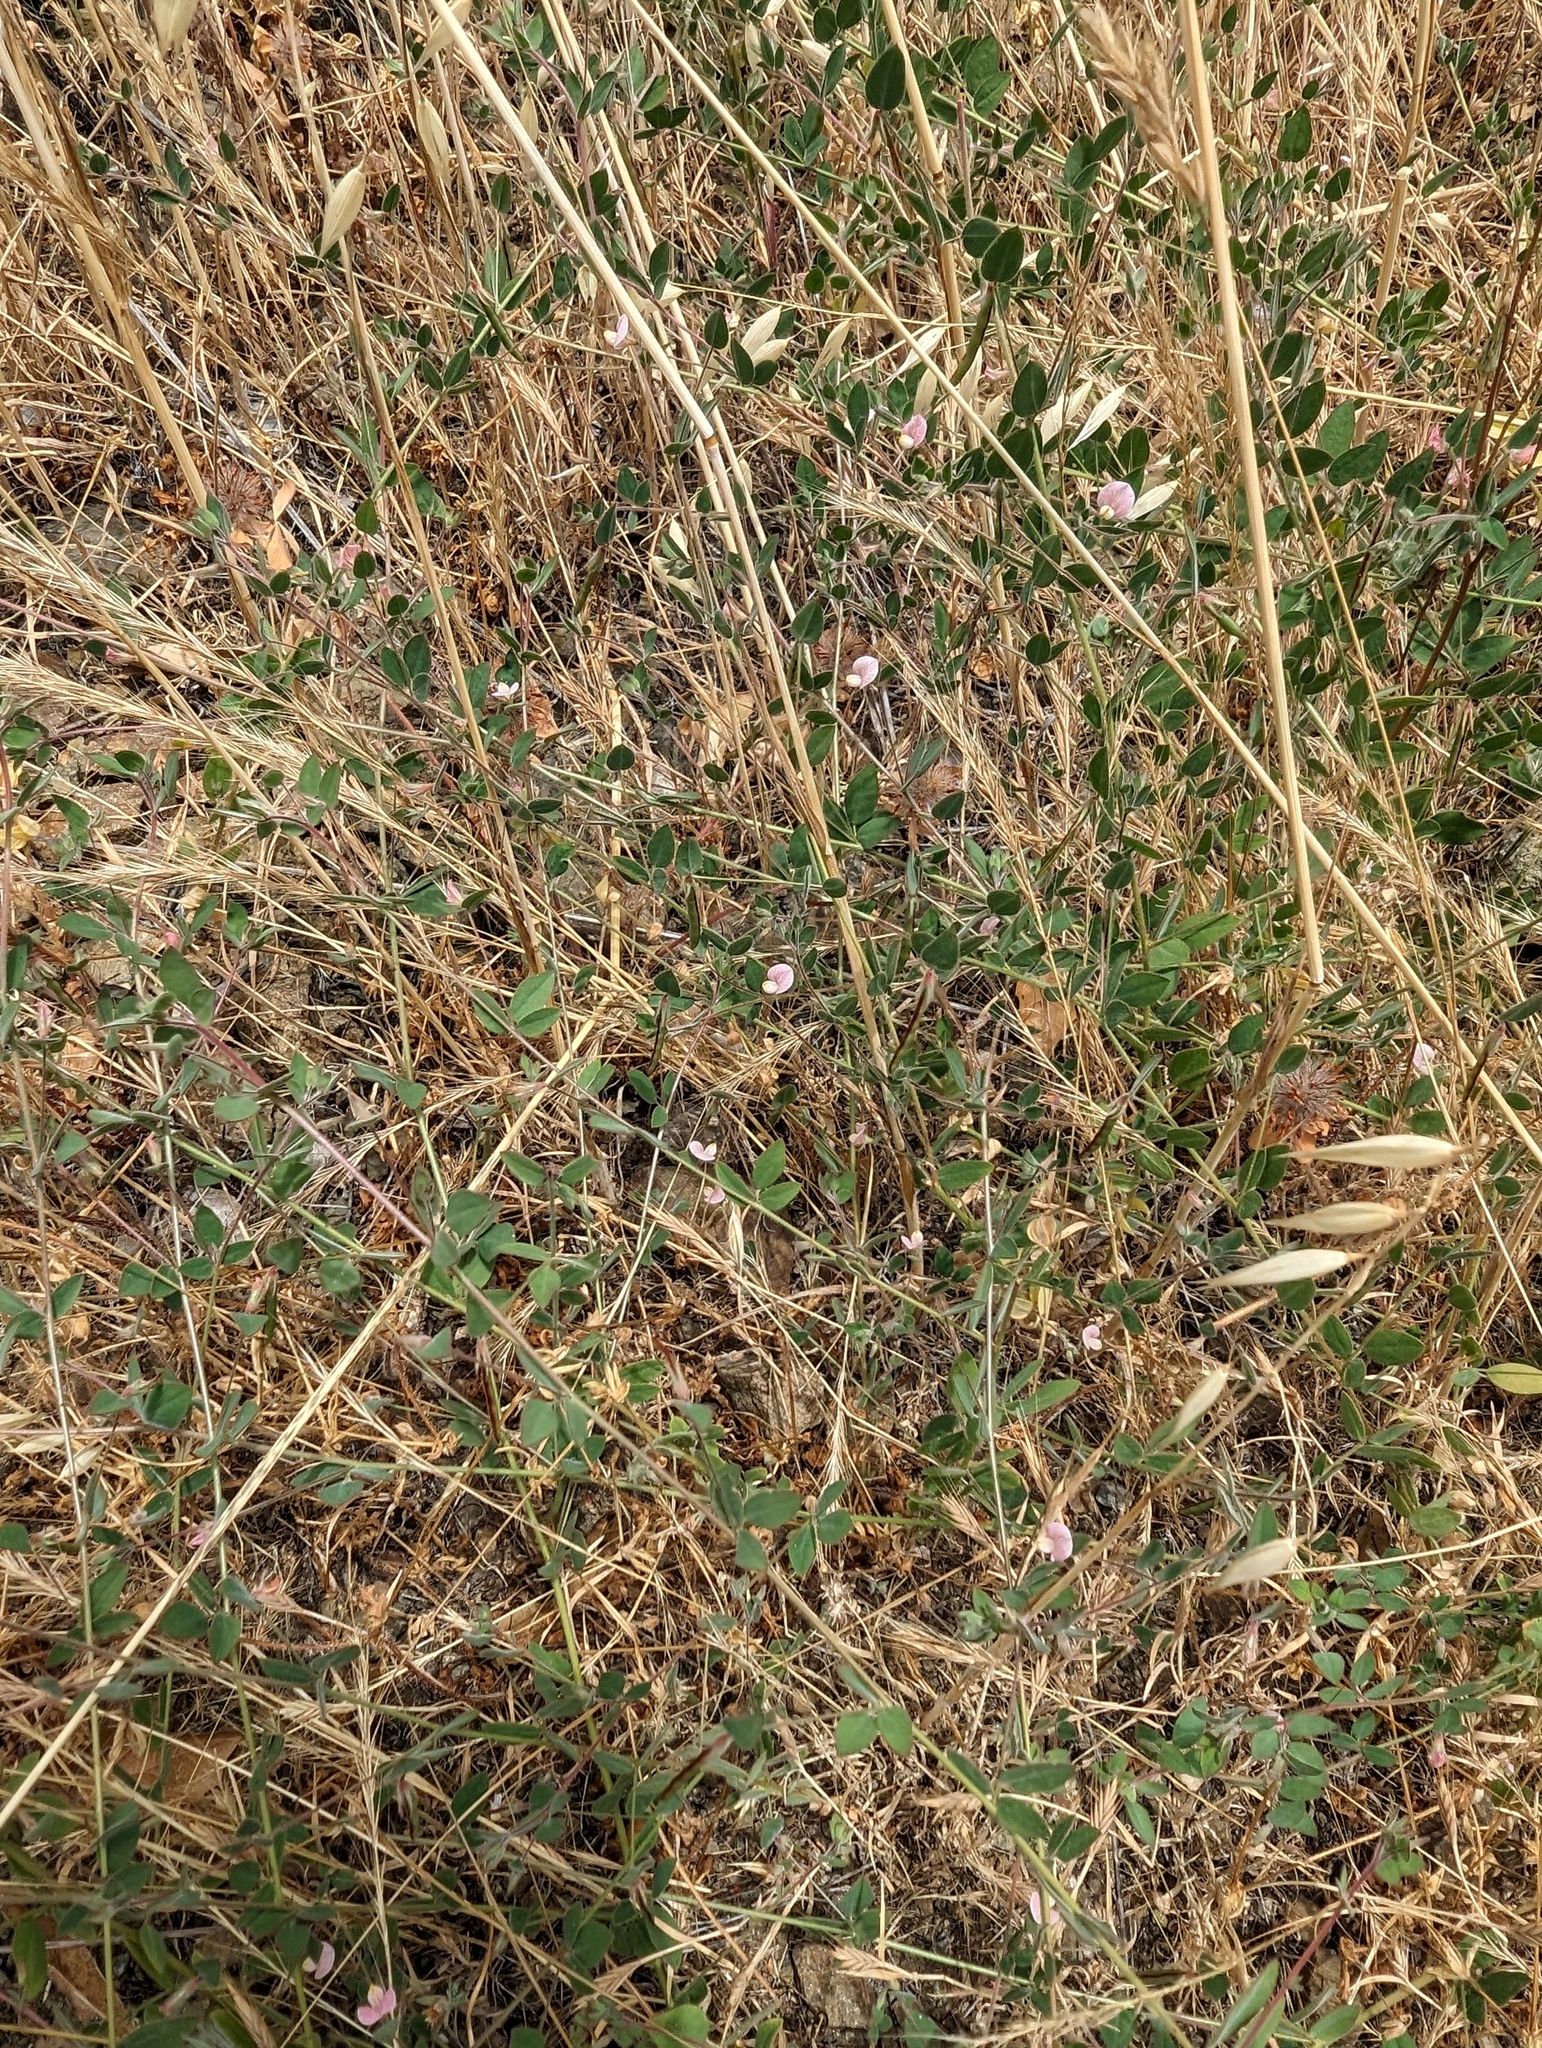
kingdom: Plantae
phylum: Tracheophyta
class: Magnoliopsida
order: Fabales
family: Fabaceae
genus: Acmispon
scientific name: Acmispon americanus
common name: American bird's-foot trefoil
